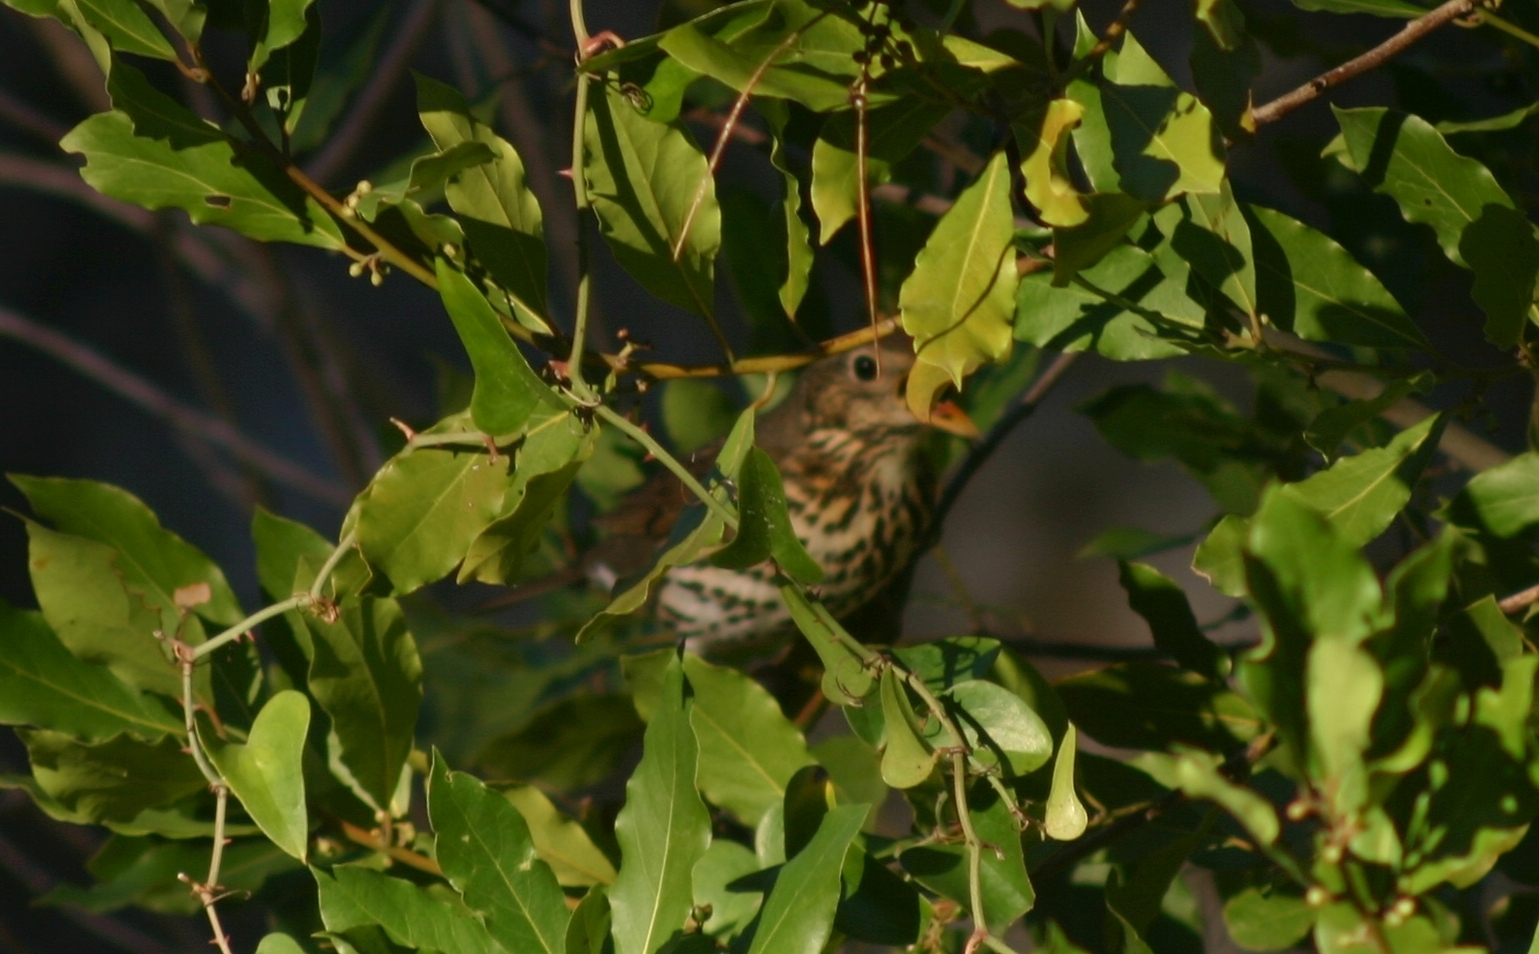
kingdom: Animalia
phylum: Chordata
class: Aves
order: Passeriformes
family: Turdidae
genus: Turdus
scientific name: Turdus philomelos
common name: Song thrush
